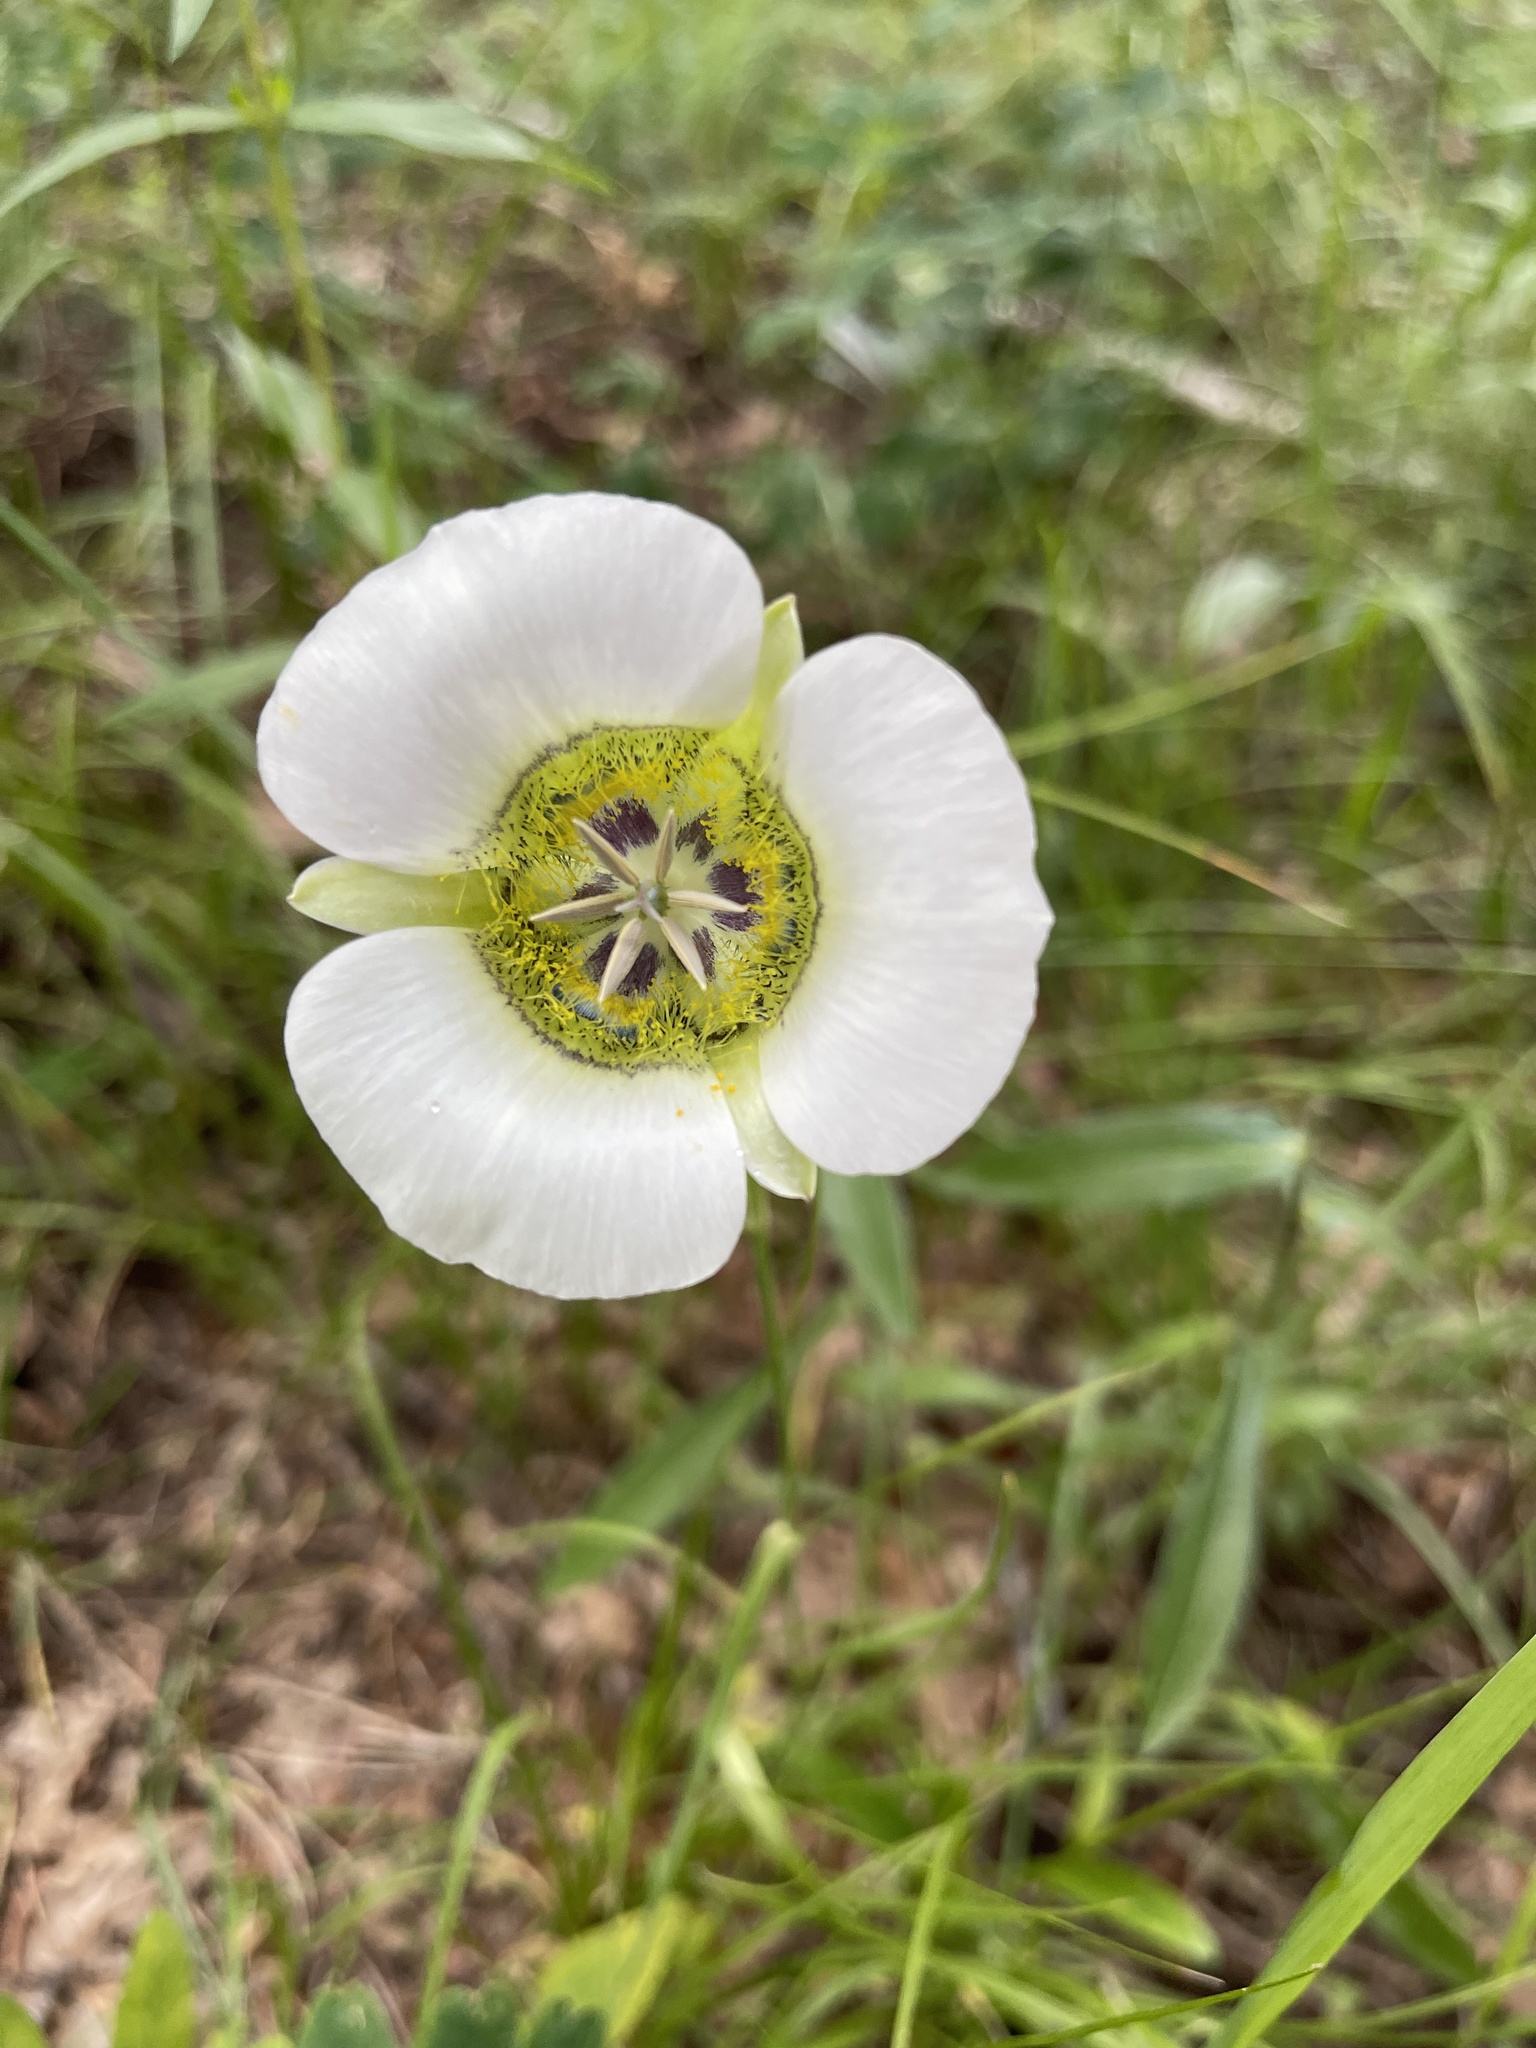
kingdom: Plantae
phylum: Tracheophyta
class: Liliopsida
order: Liliales
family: Liliaceae
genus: Calochortus
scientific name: Calochortus gunnisonii
